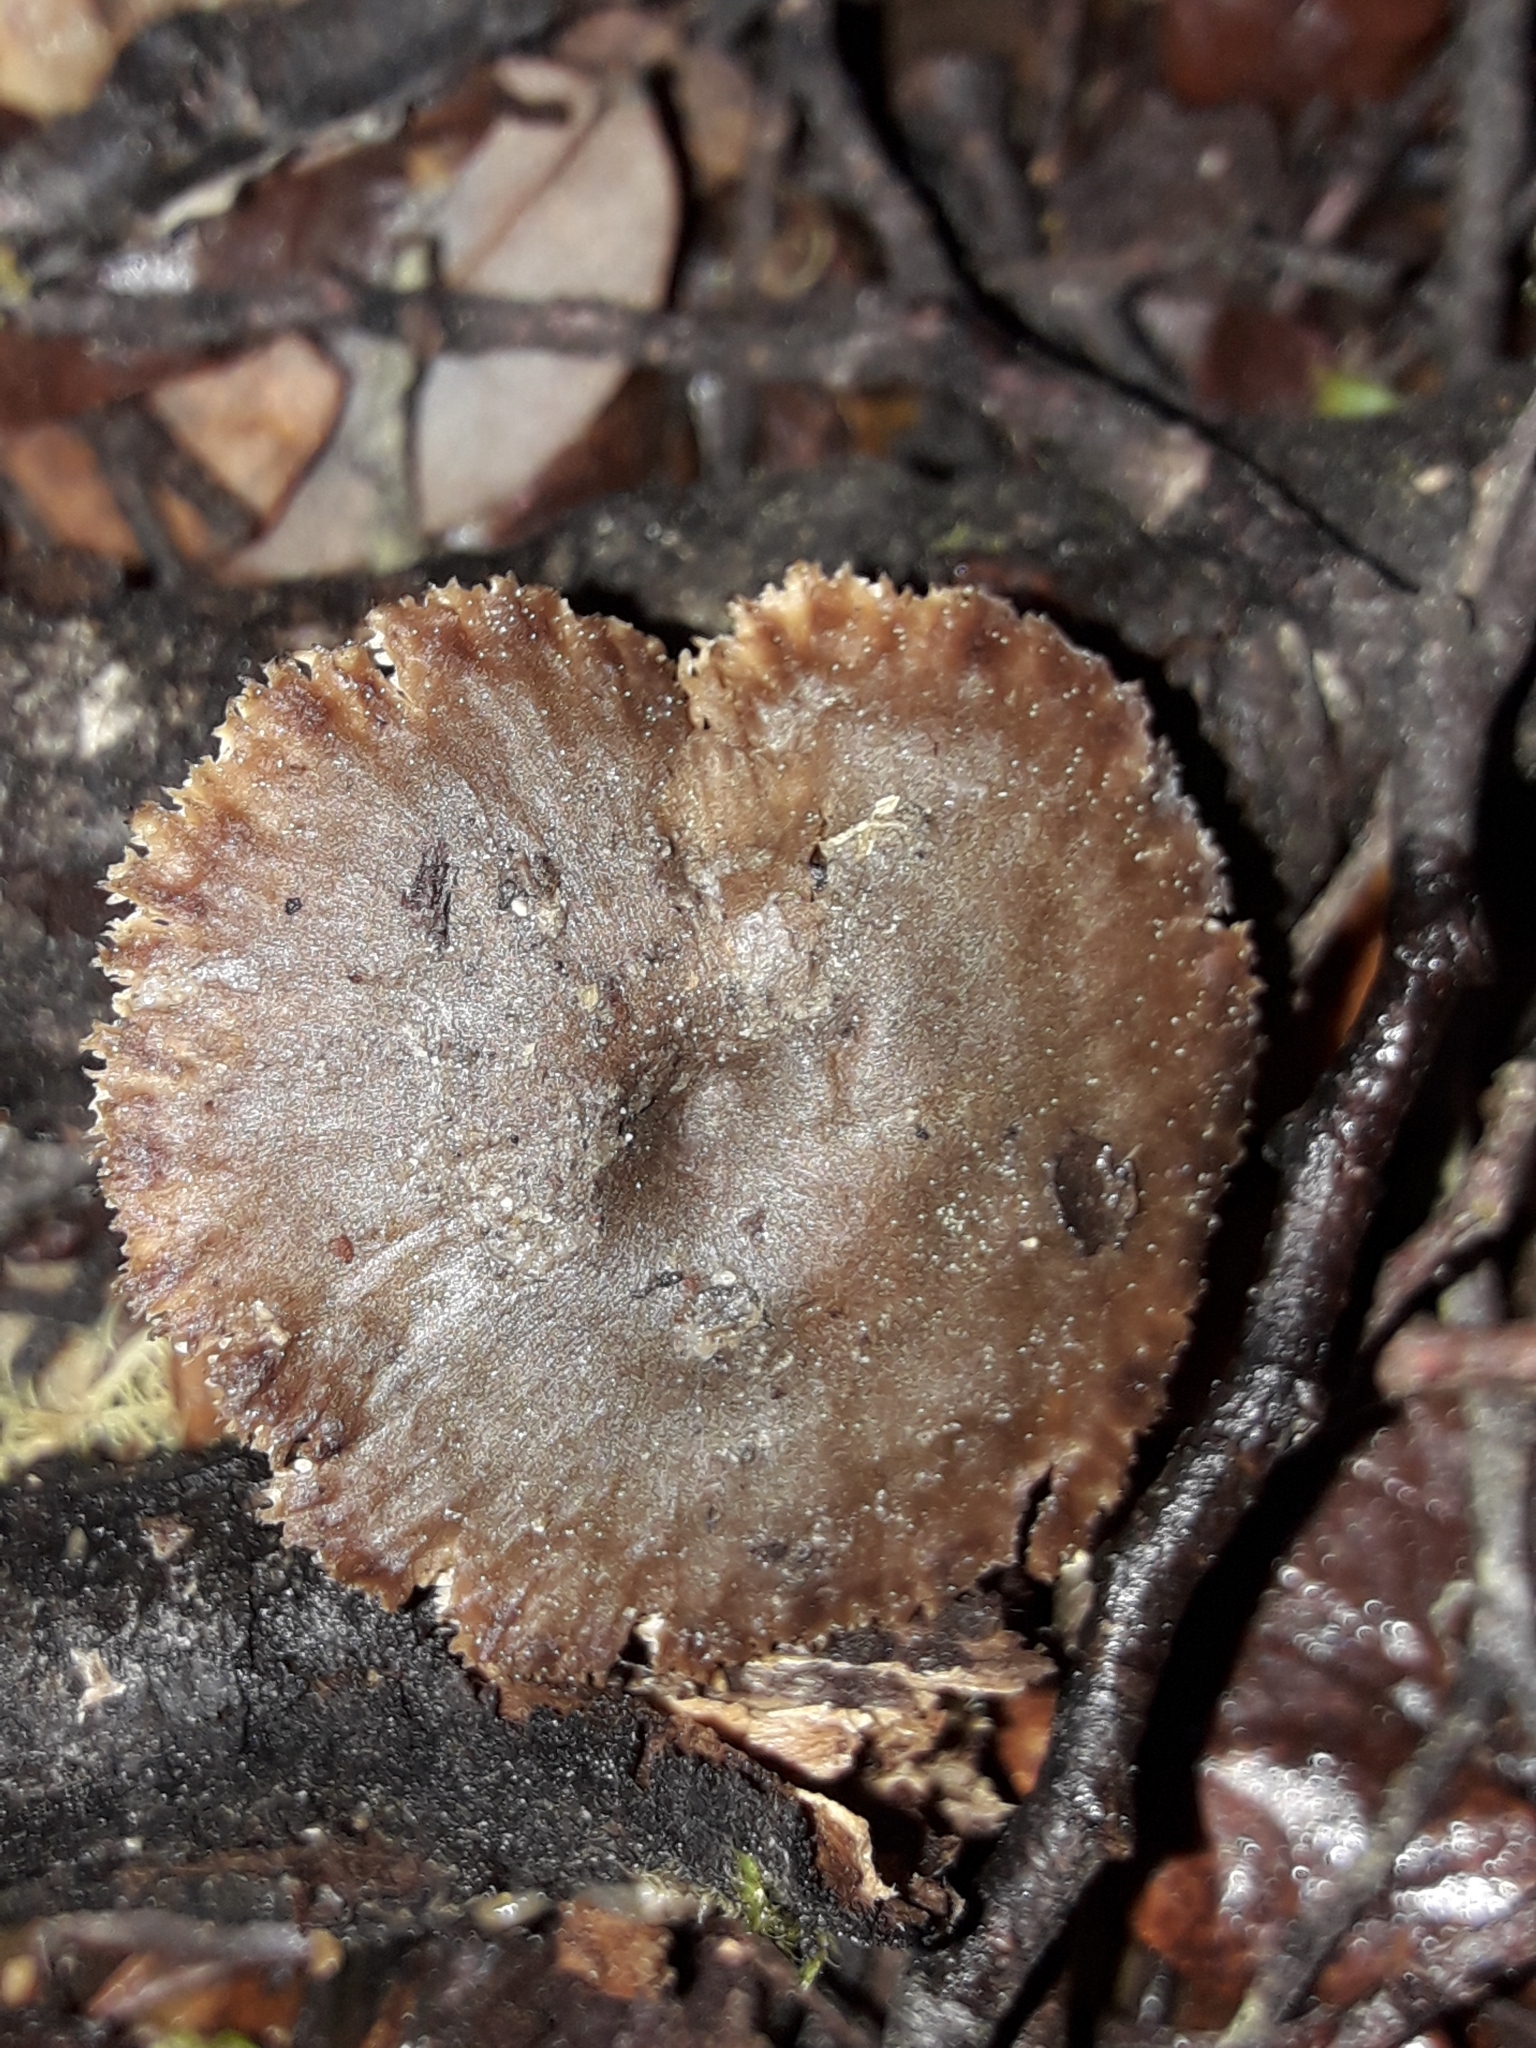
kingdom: Fungi
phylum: Basidiomycota
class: Agaricomycetes
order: Russulales
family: Auriscalpiaceae
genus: Auriscalpium
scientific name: Auriscalpium umbella
